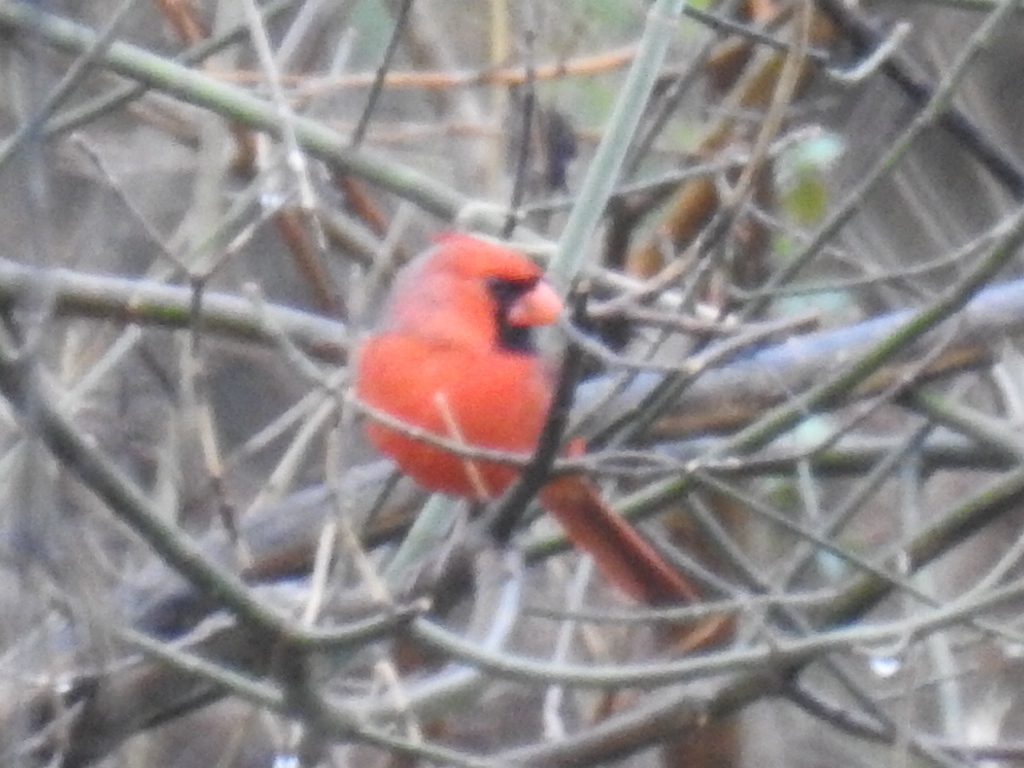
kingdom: Animalia
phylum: Chordata
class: Aves
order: Passeriformes
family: Cardinalidae
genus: Cardinalis
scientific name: Cardinalis cardinalis
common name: Northern cardinal
